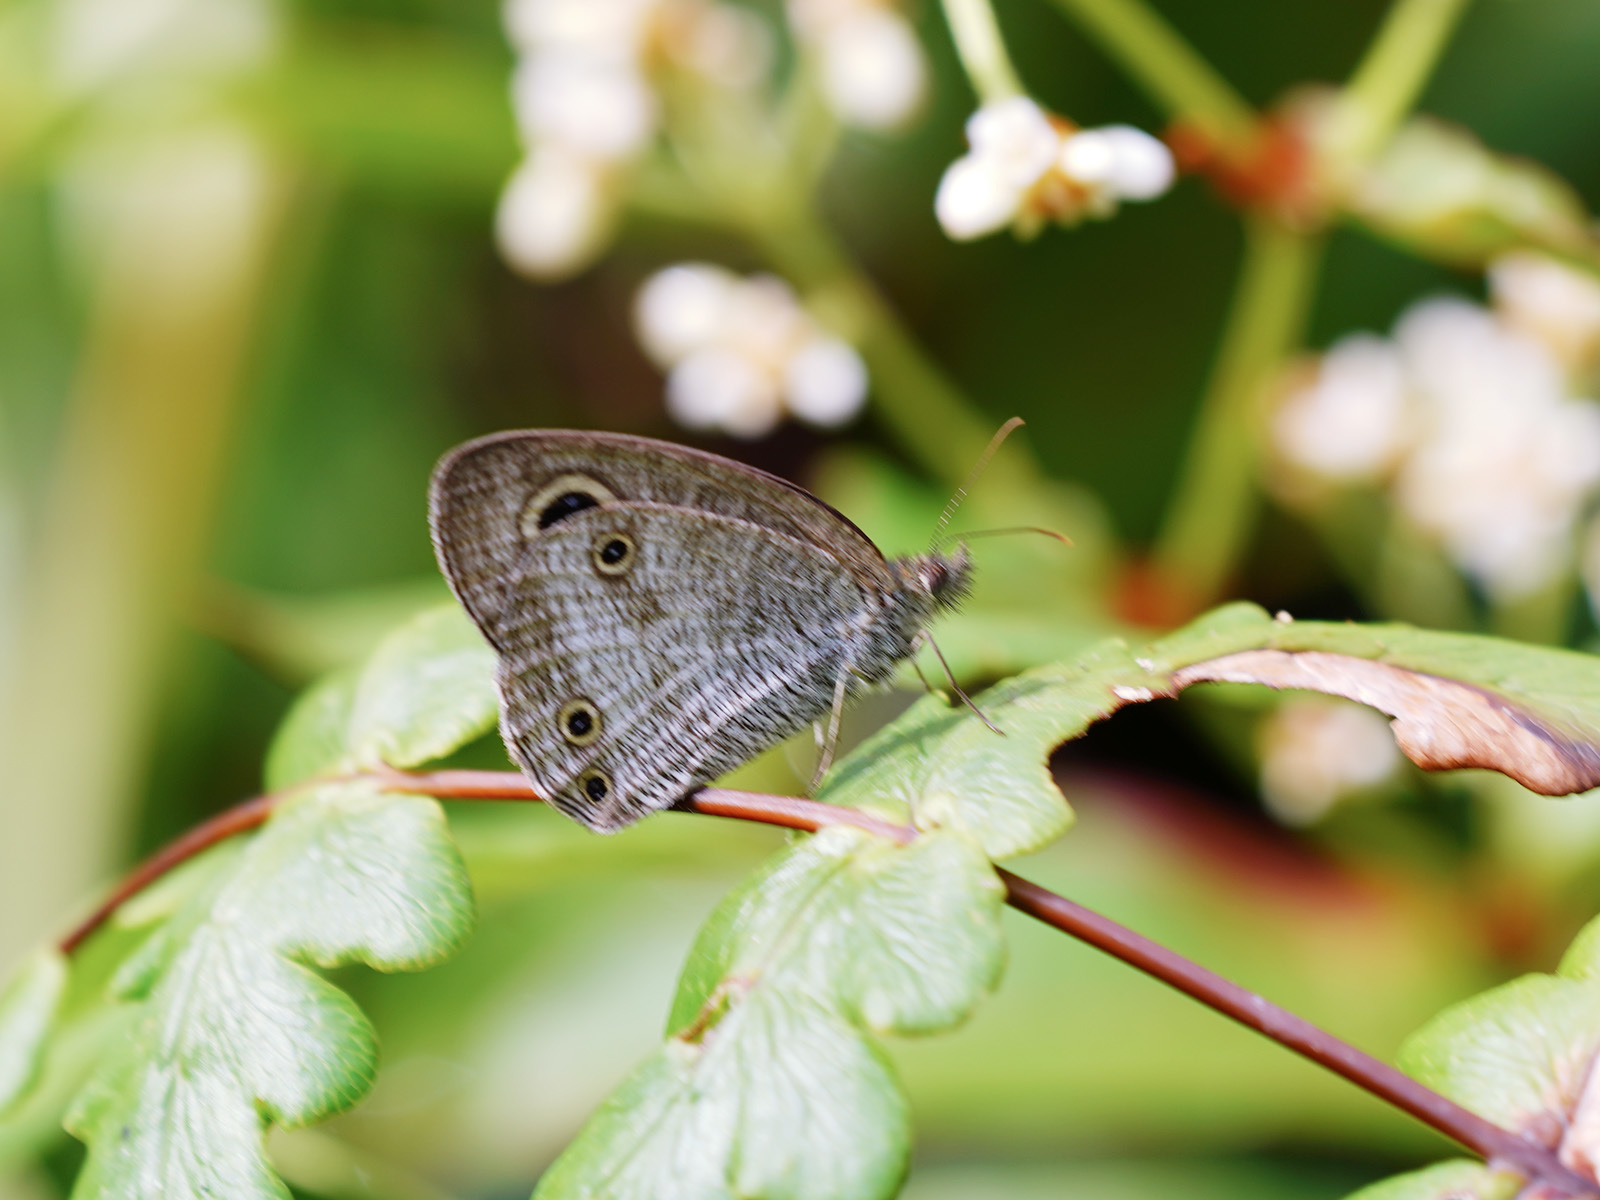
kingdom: Animalia
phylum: Arthropoda
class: Insecta
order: Lepidoptera
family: Nymphalidae
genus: Ypthima
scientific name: Ypthima pandocus
